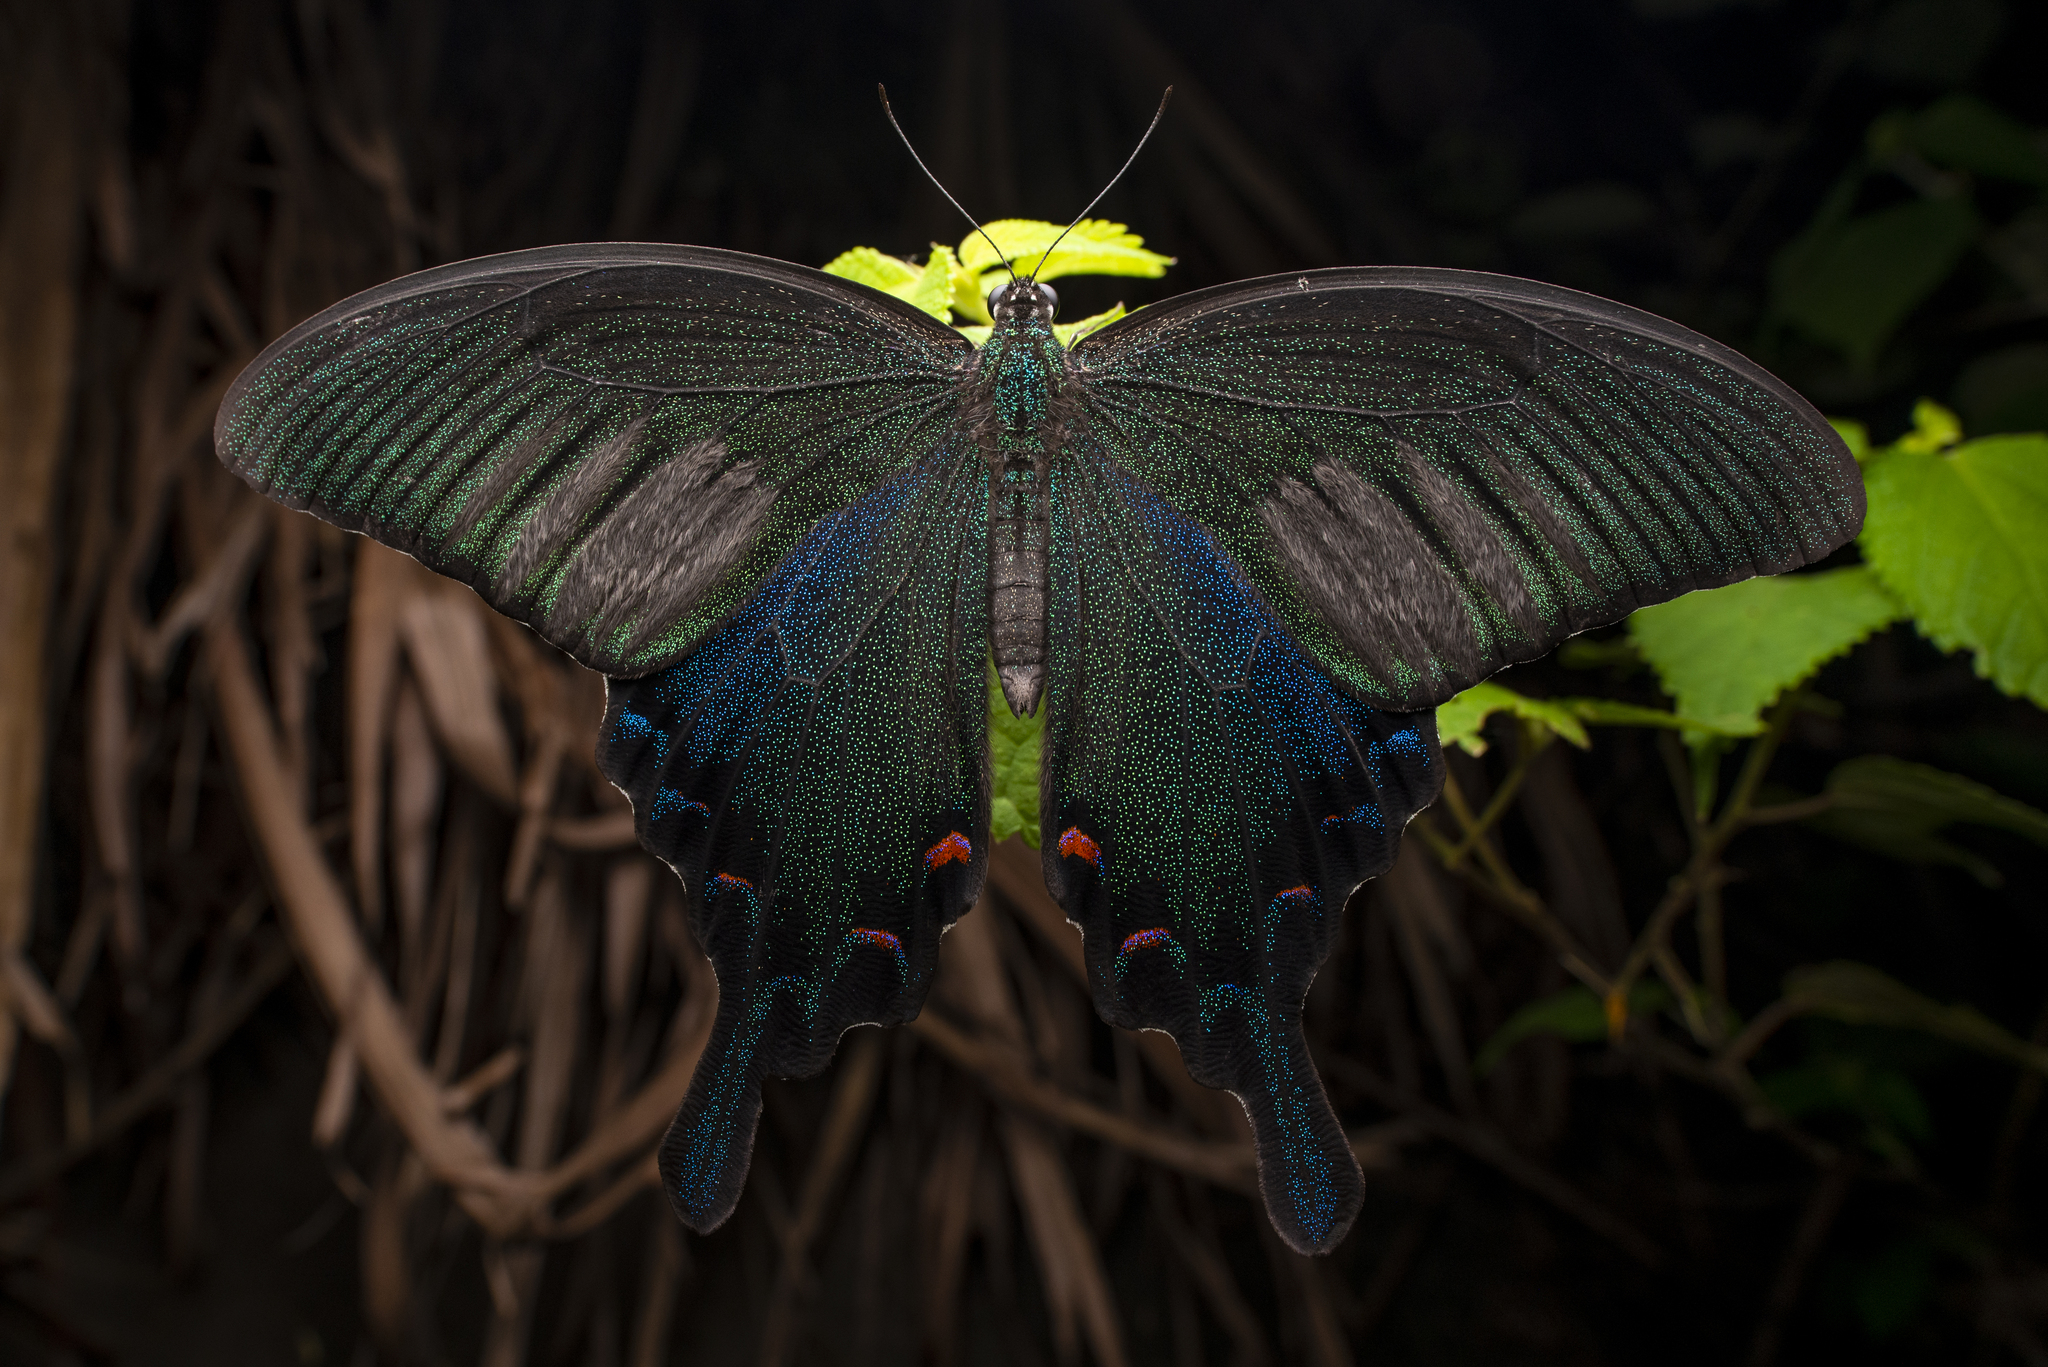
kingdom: Animalia
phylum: Arthropoda
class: Insecta
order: Lepidoptera
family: Papilionidae
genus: Papilio
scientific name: Papilio bianor
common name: Common peacock
